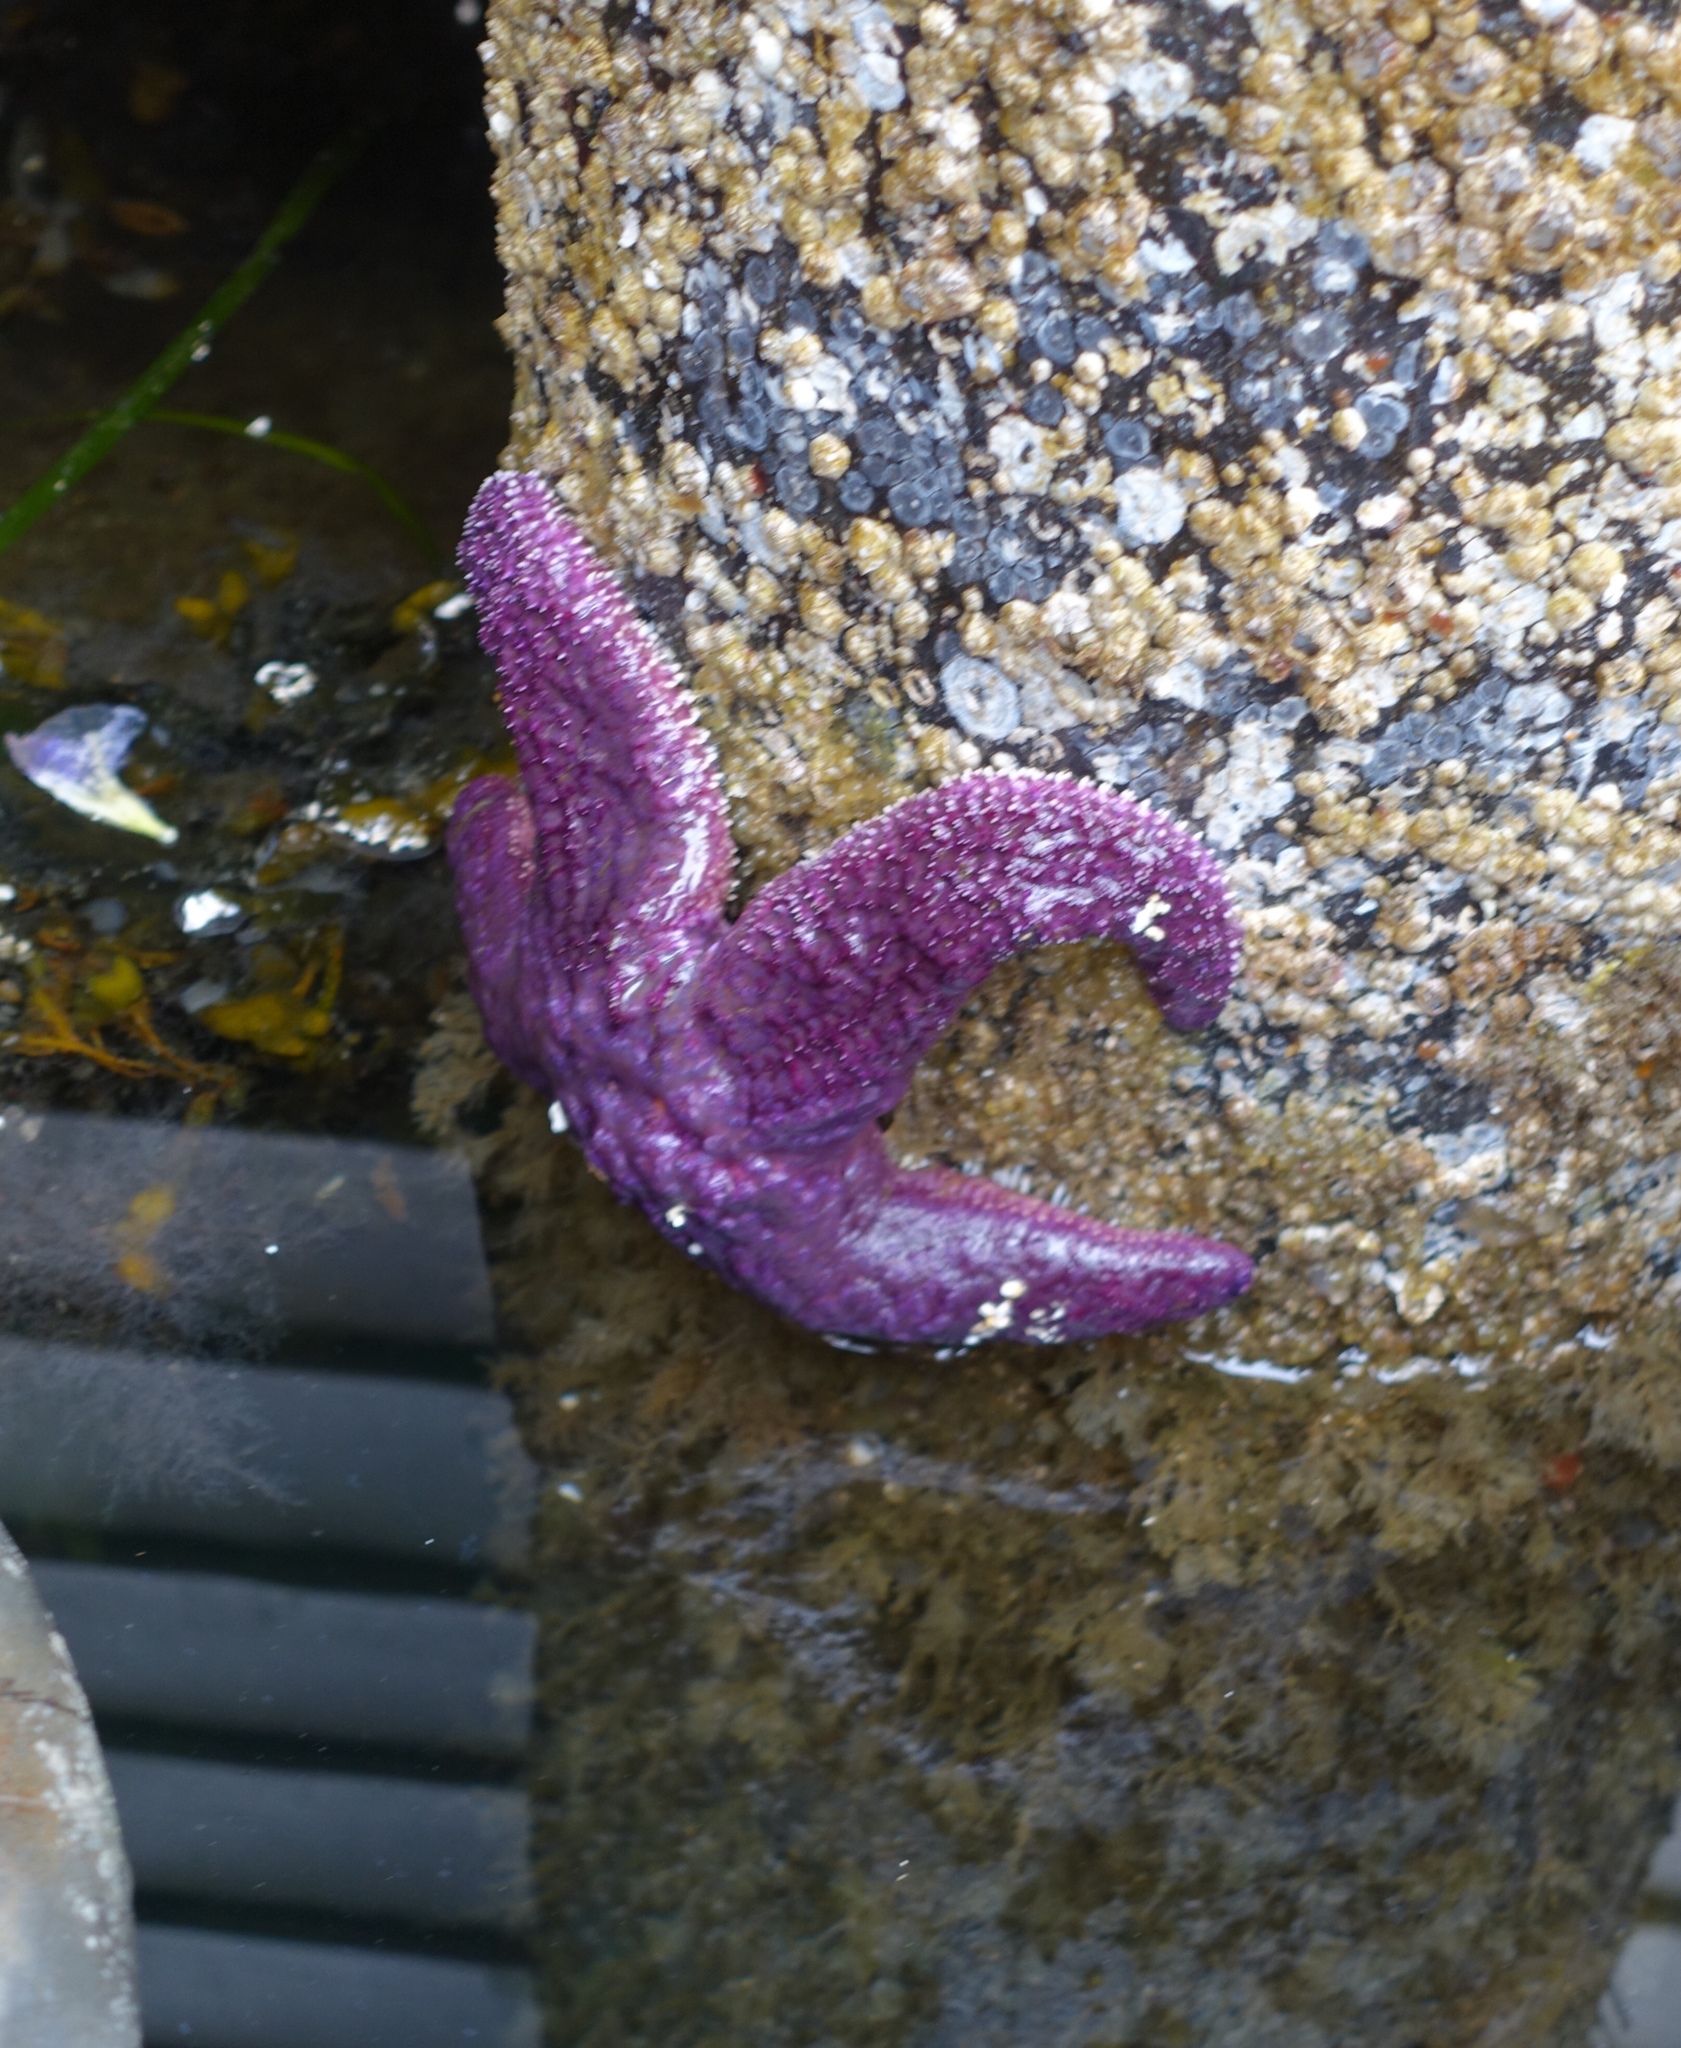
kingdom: Animalia
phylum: Echinodermata
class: Asteroidea
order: Forcipulatida
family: Asteriidae
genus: Pisaster
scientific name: Pisaster ochraceus
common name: Ochre stars
